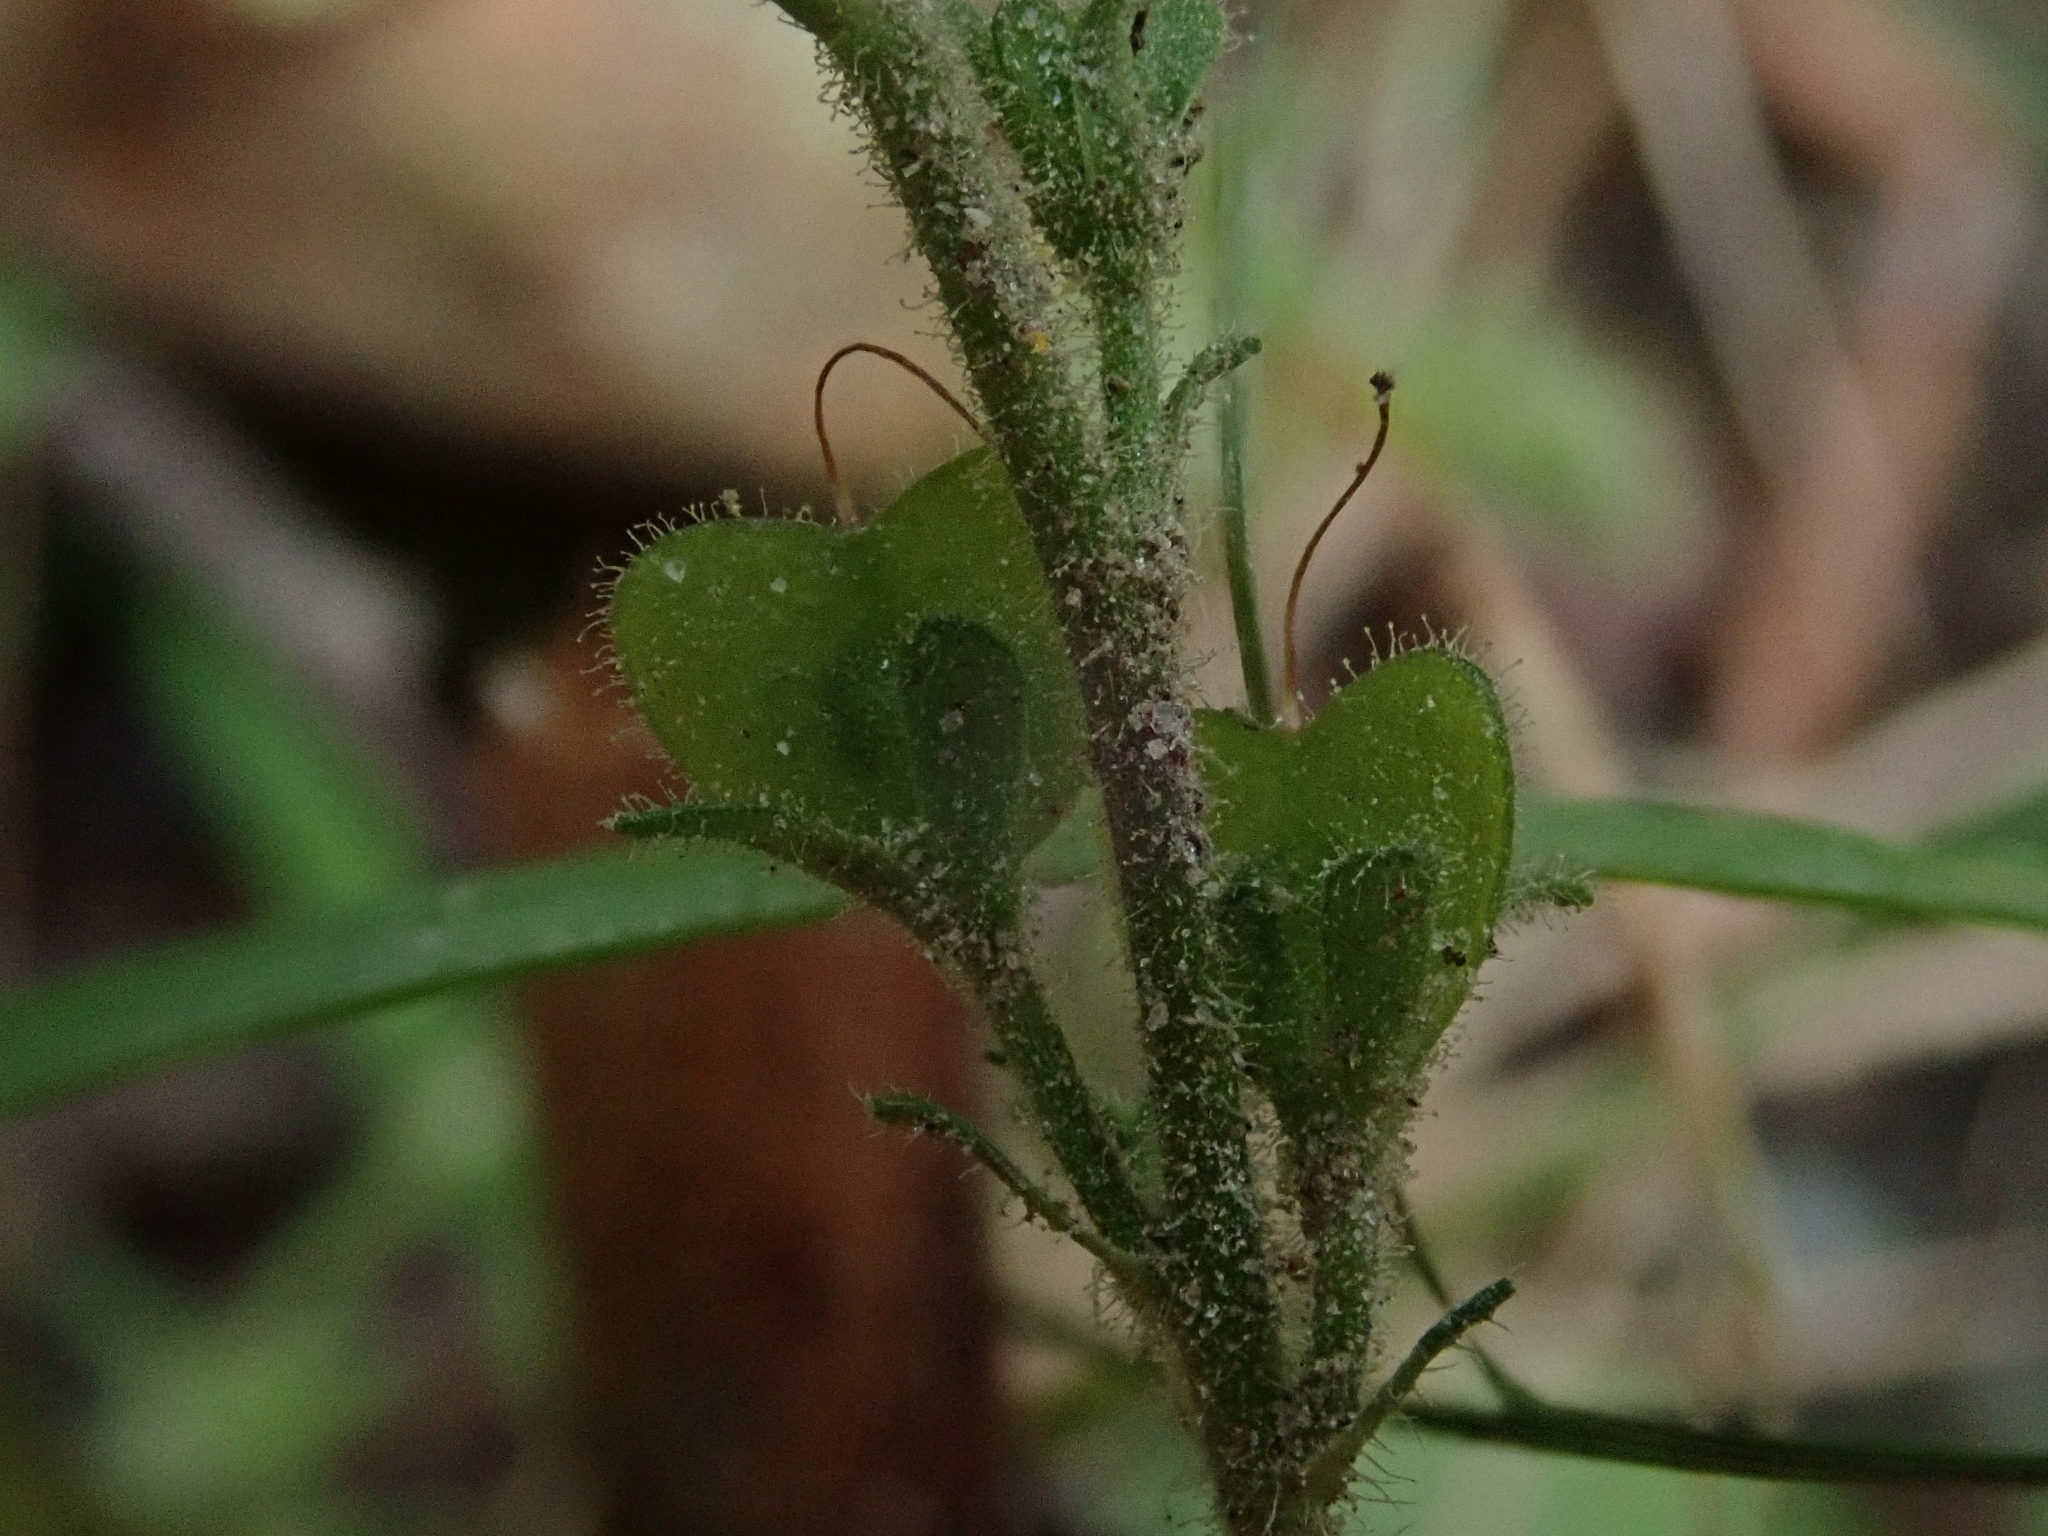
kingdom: Plantae
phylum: Tracheophyta
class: Magnoliopsida
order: Lamiales
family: Plantaginaceae
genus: Veronica
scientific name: Veronica officinalis
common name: Common speedwell
